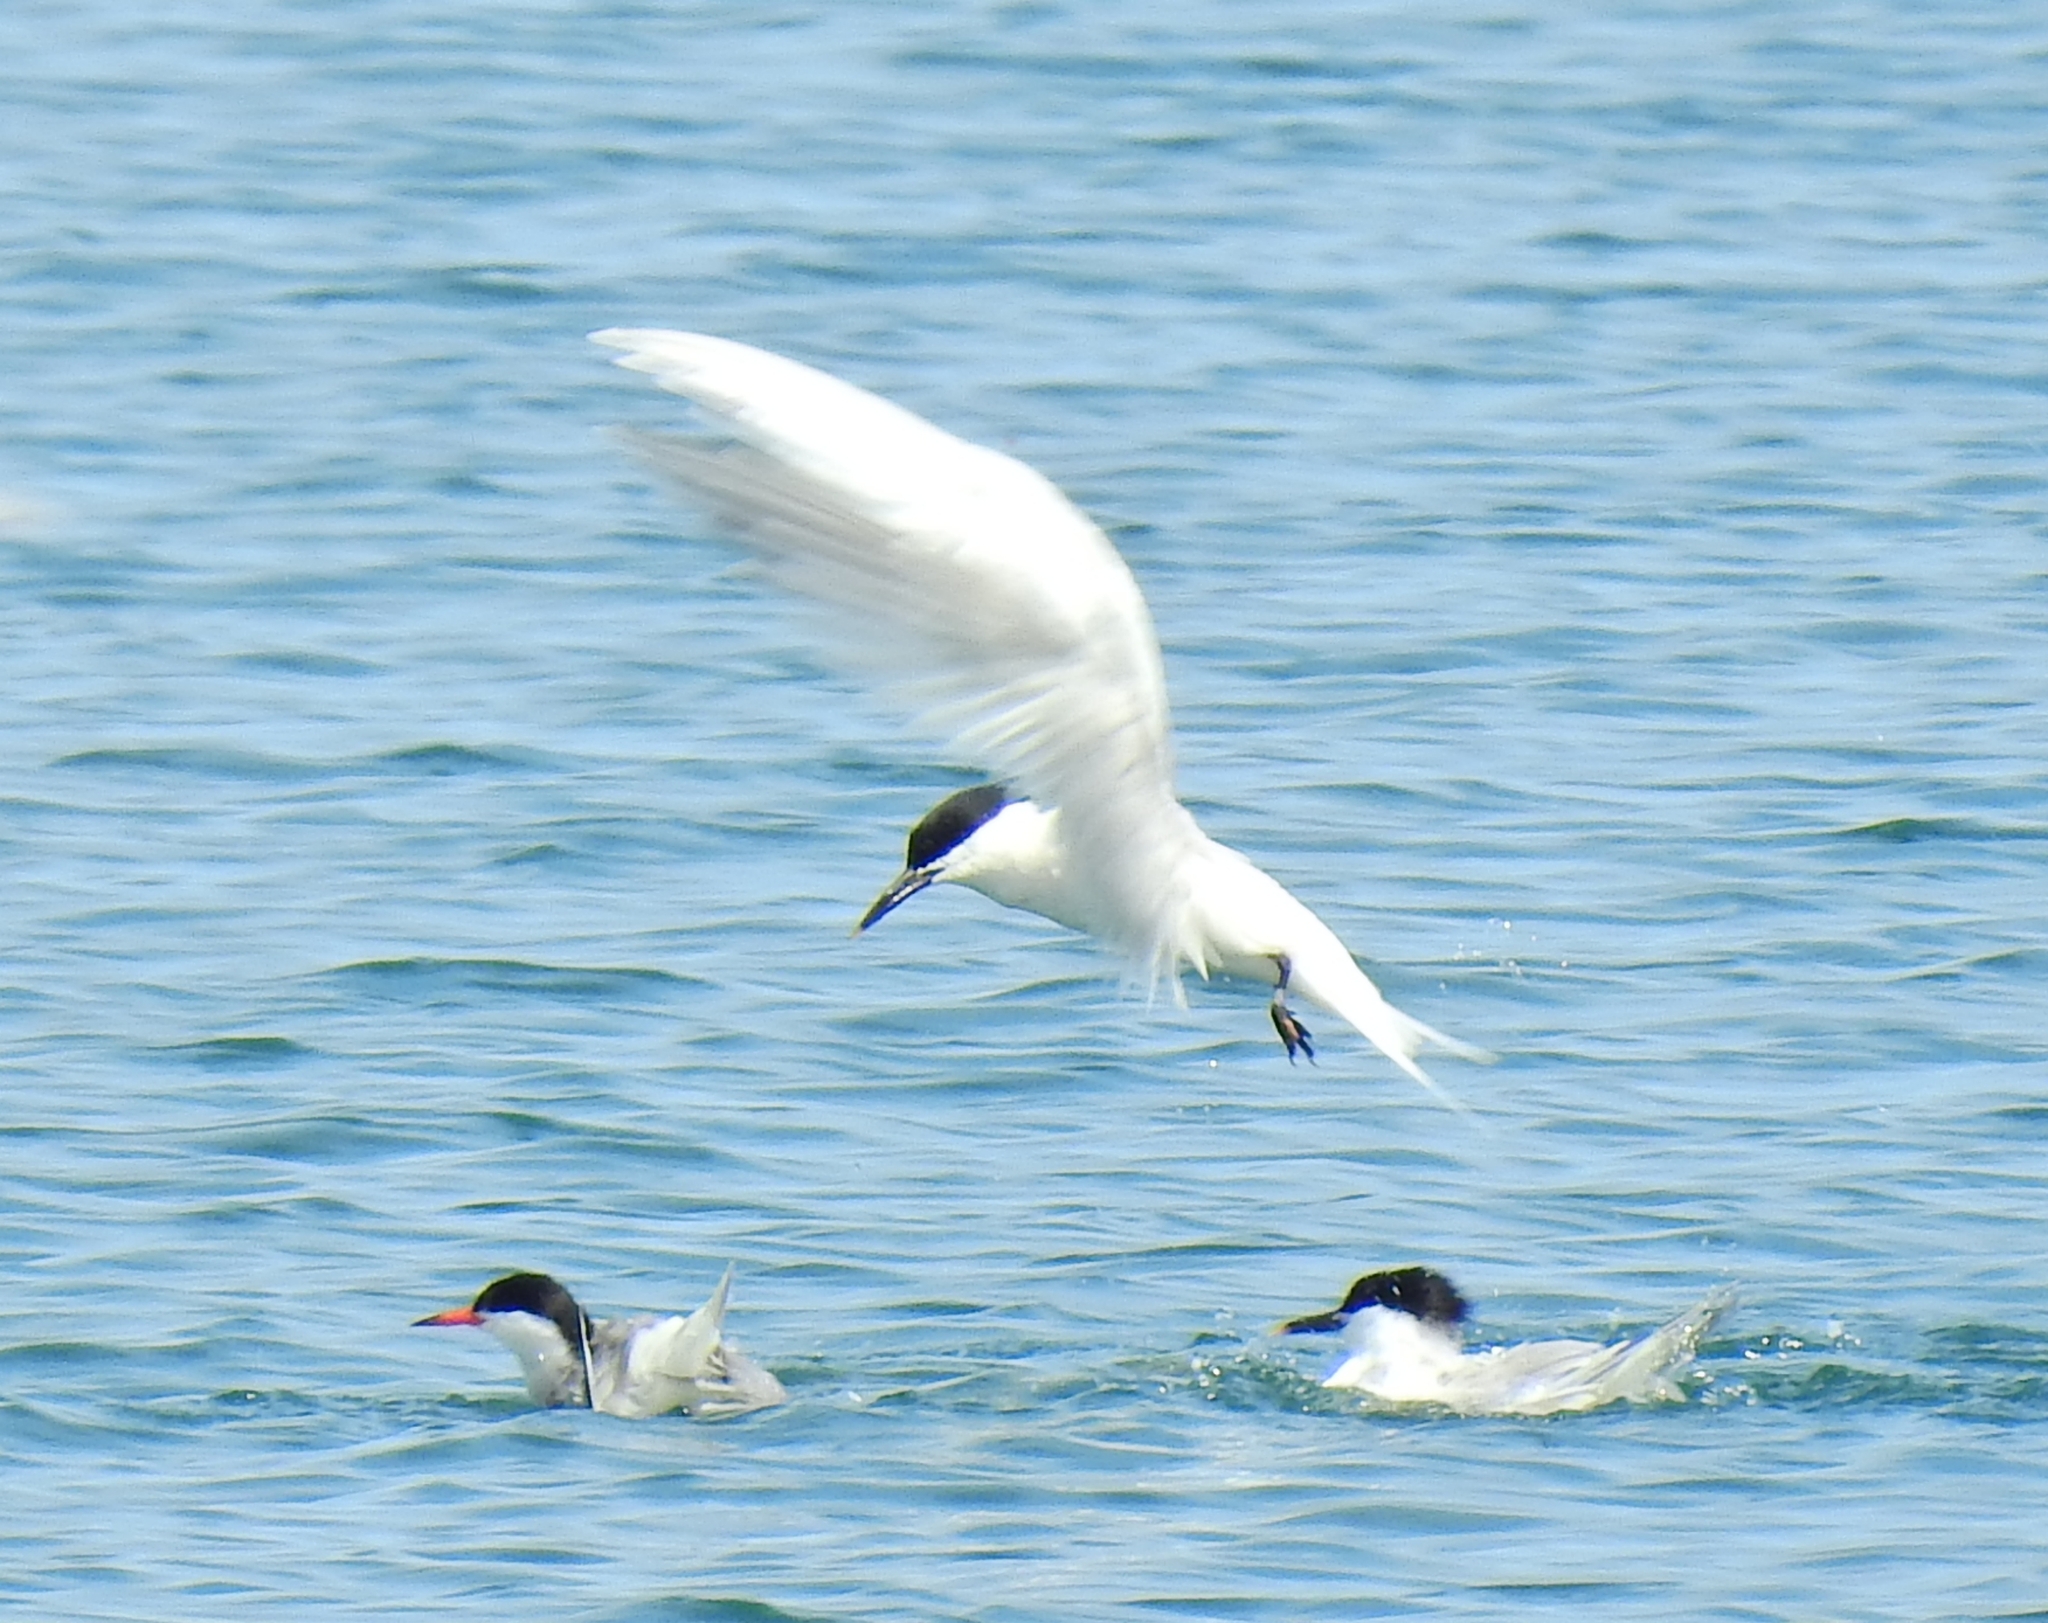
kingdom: Animalia
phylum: Chordata
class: Aves
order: Charadriiformes
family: Laridae
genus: Thalasseus
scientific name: Thalasseus sandvicensis
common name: Sandwich tern
